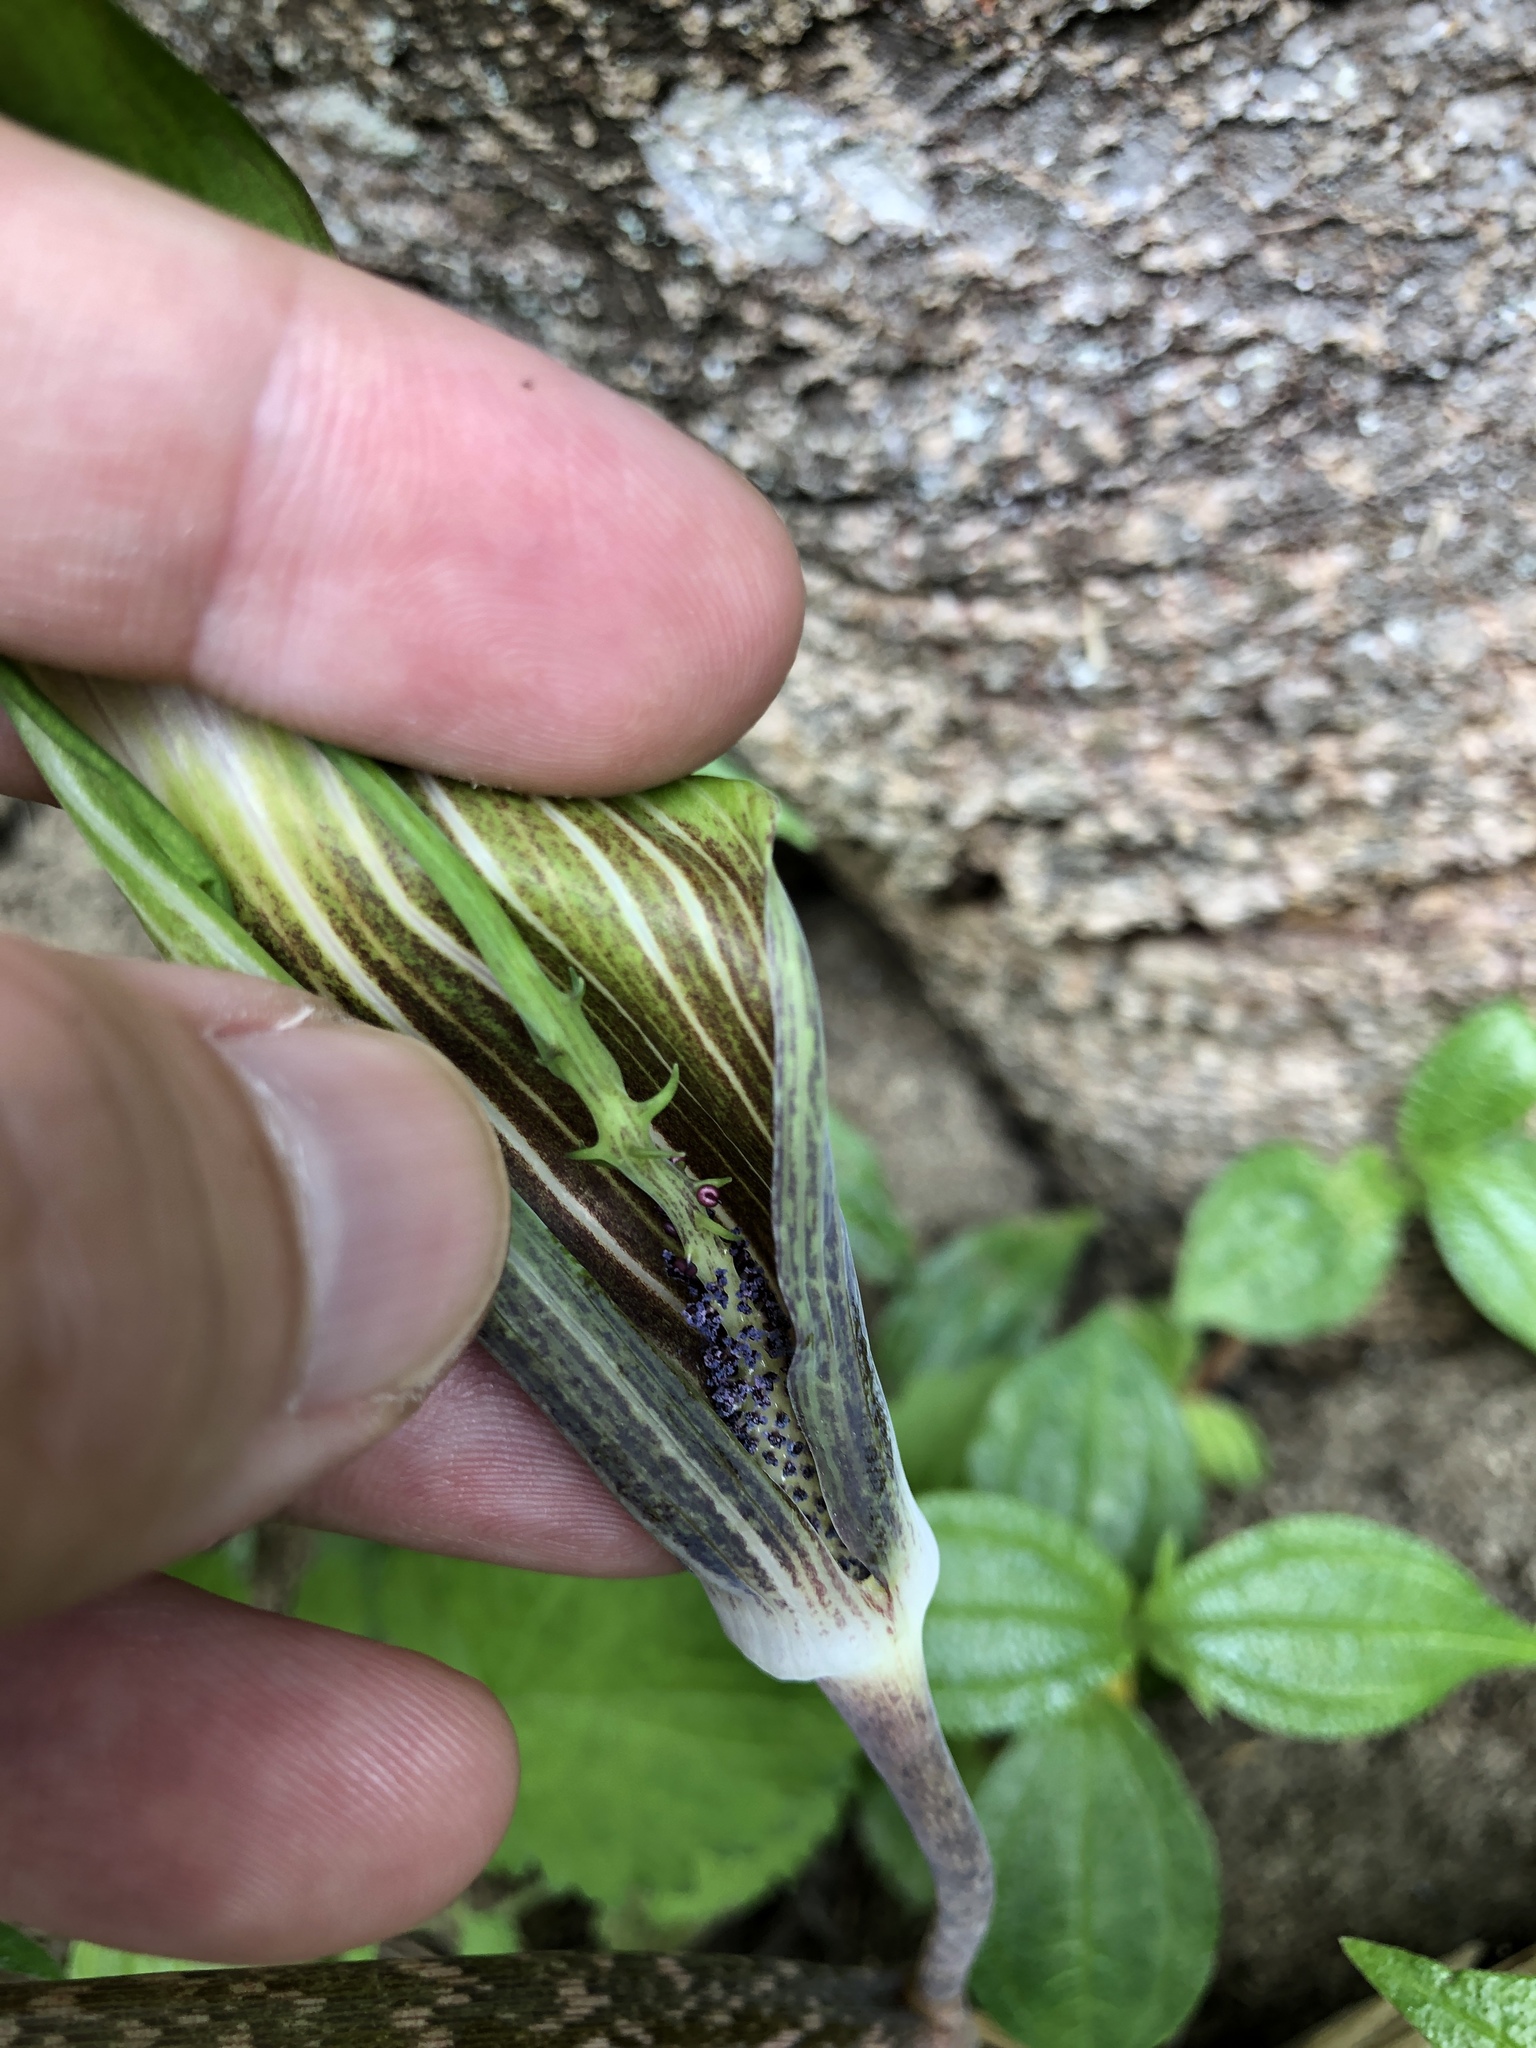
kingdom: Plantae
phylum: Tracheophyta
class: Liliopsida
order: Alismatales
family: Araceae
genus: Arisaema
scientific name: Arisaema consanguineum
